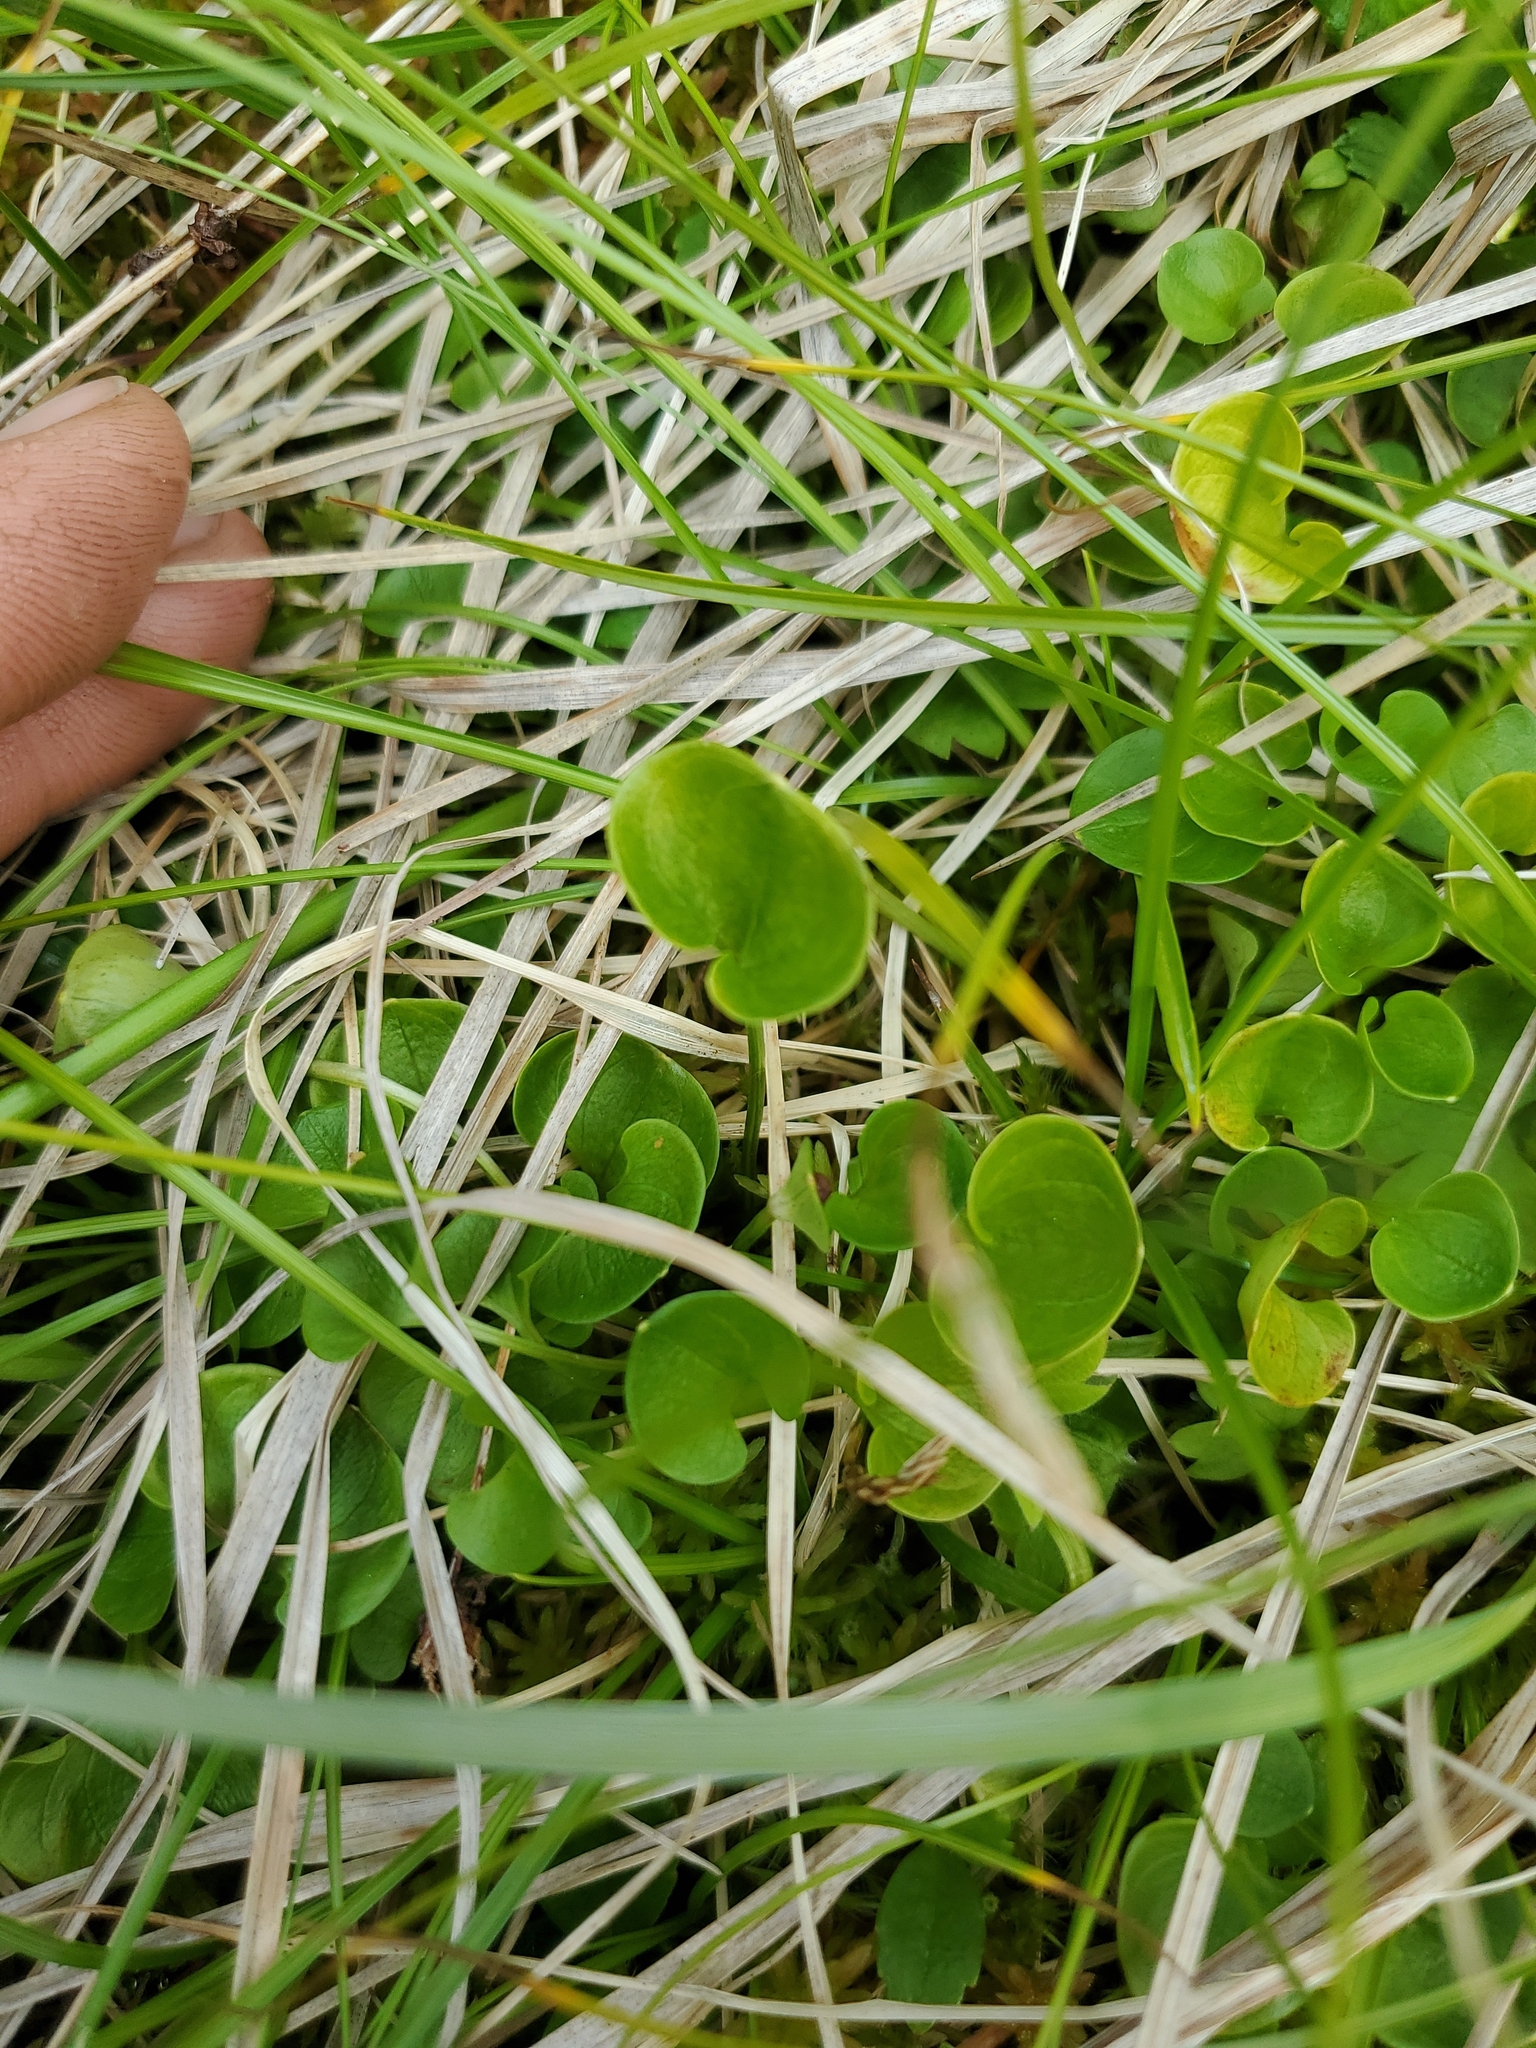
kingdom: Plantae
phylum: Tracheophyta
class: Magnoliopsida
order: Celastrales
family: Parnassiaceae
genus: Parnassia
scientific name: Parnassia fimbriata
